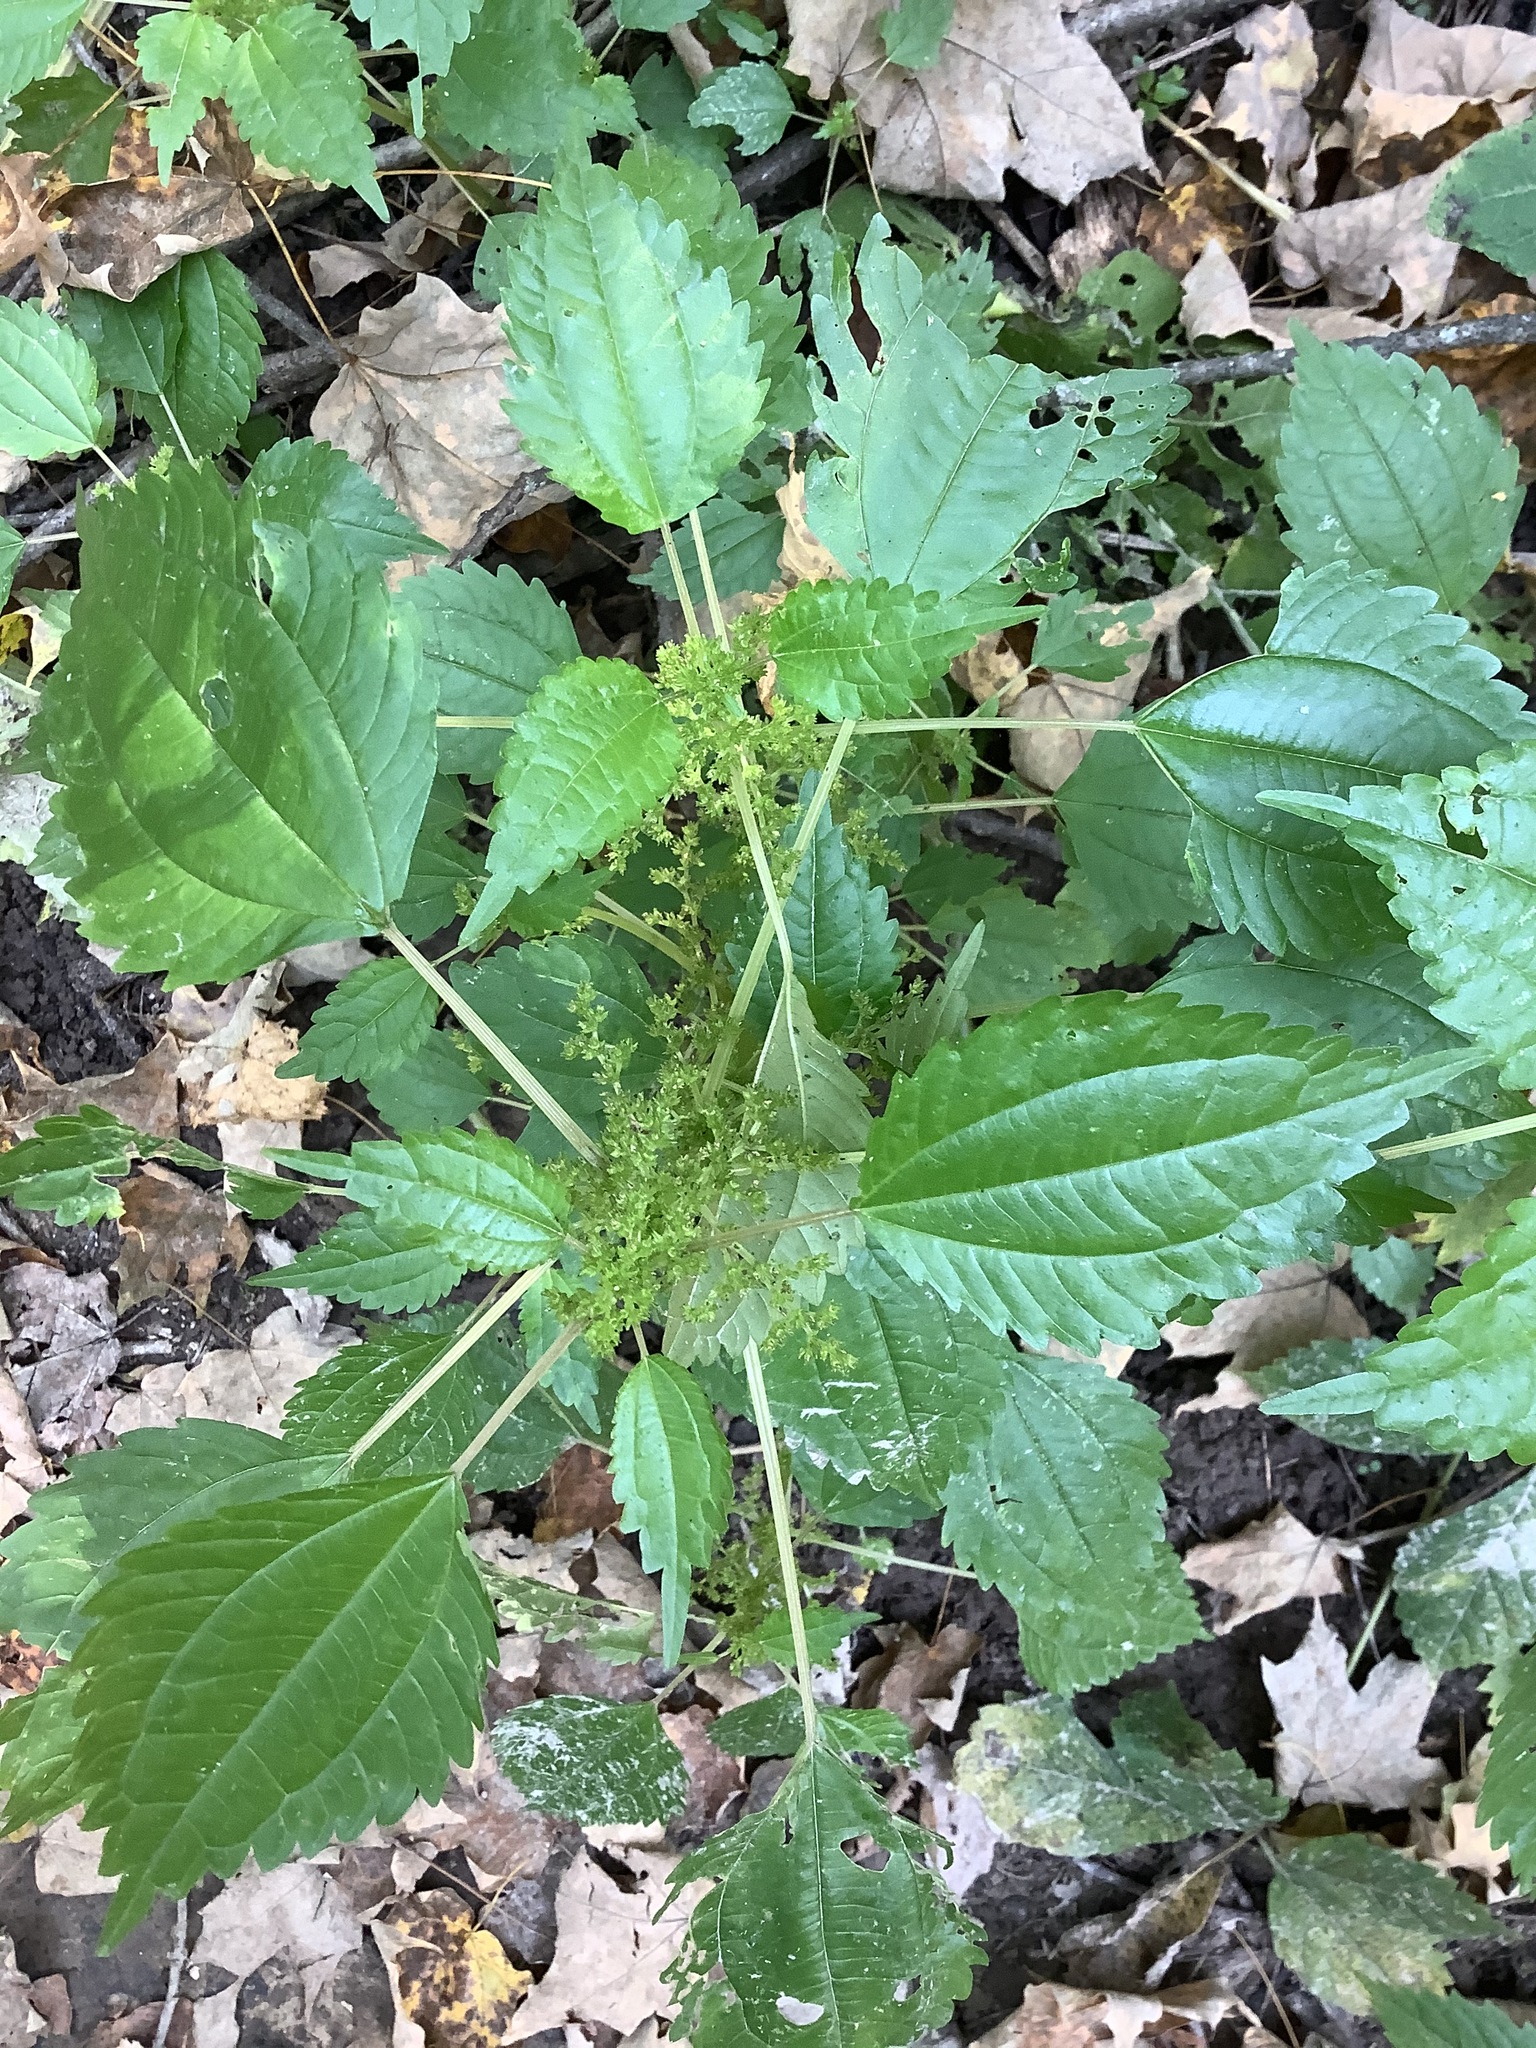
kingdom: Plantae
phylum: Tracheophyta
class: Magnoliopsida
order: Rosales
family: Urticaceae
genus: Pilea
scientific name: Pilea pumila
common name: Clearweed
